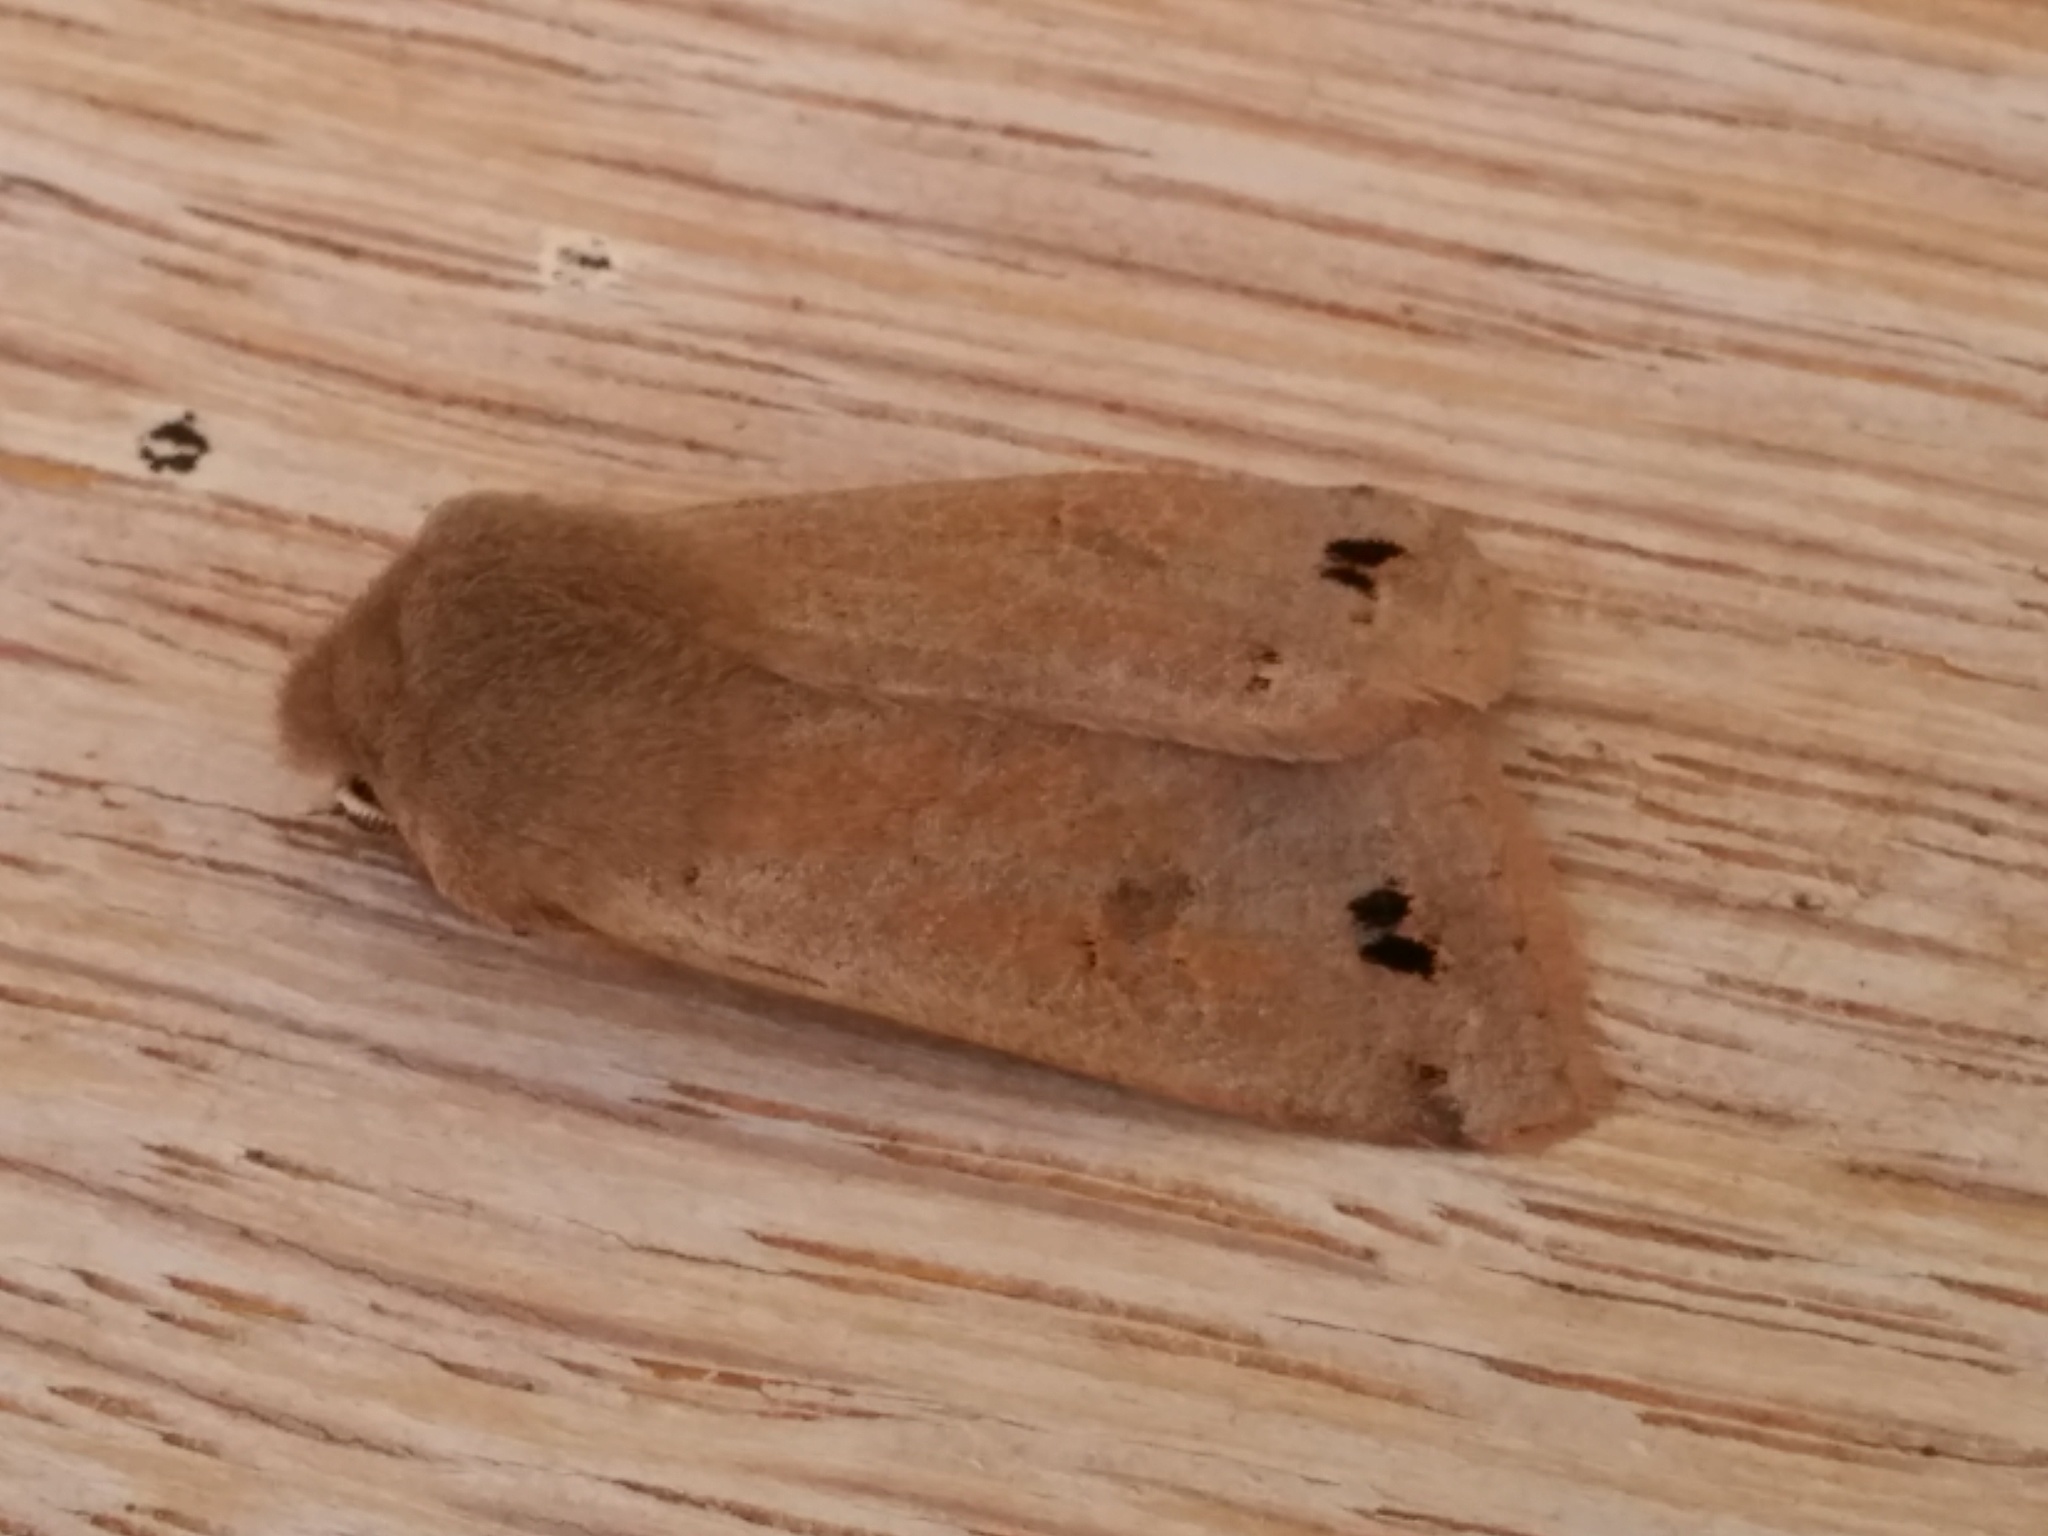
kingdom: Animalia
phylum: Arthropoda
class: Insecta
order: Lepidoptera
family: Noctuidae
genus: Anorthoa
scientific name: Anorthoa munda
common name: Twin-spotted quaker
